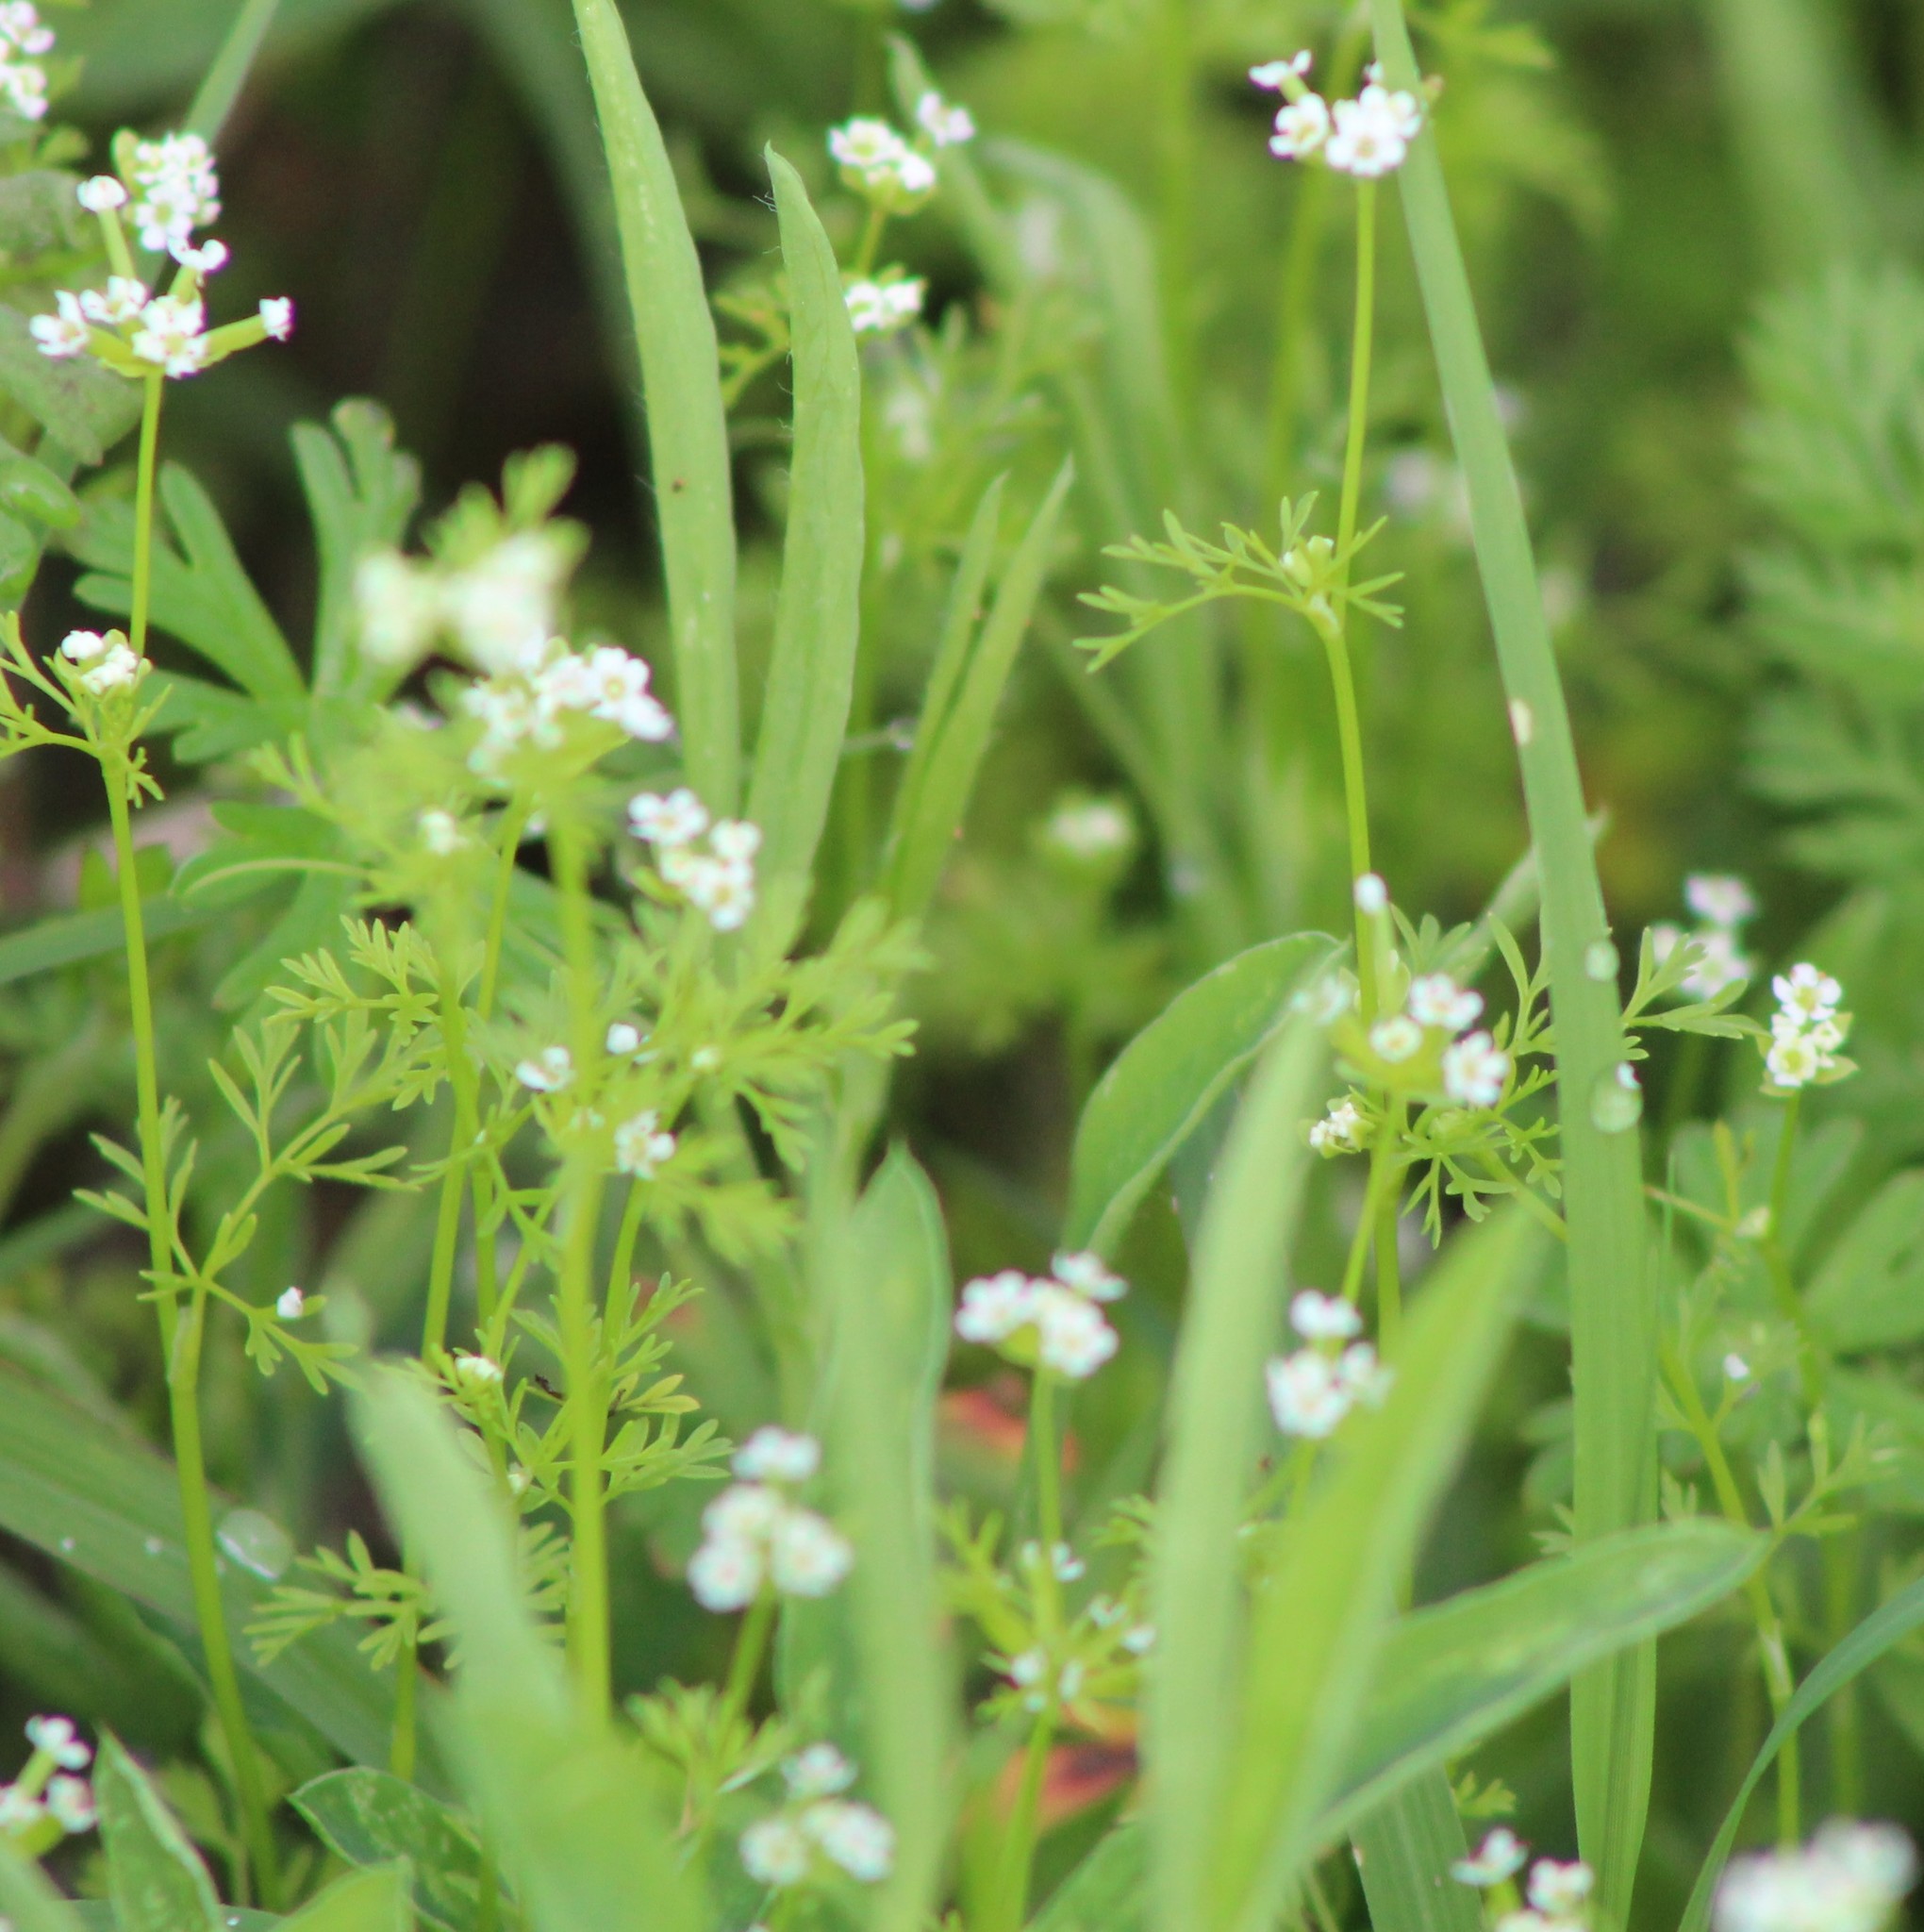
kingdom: Plantae
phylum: Tracheophyta
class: Magnoliopsida
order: Apiales
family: Apiaceae
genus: Chaerophyllum
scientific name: Chaerophyllum tainturieri
